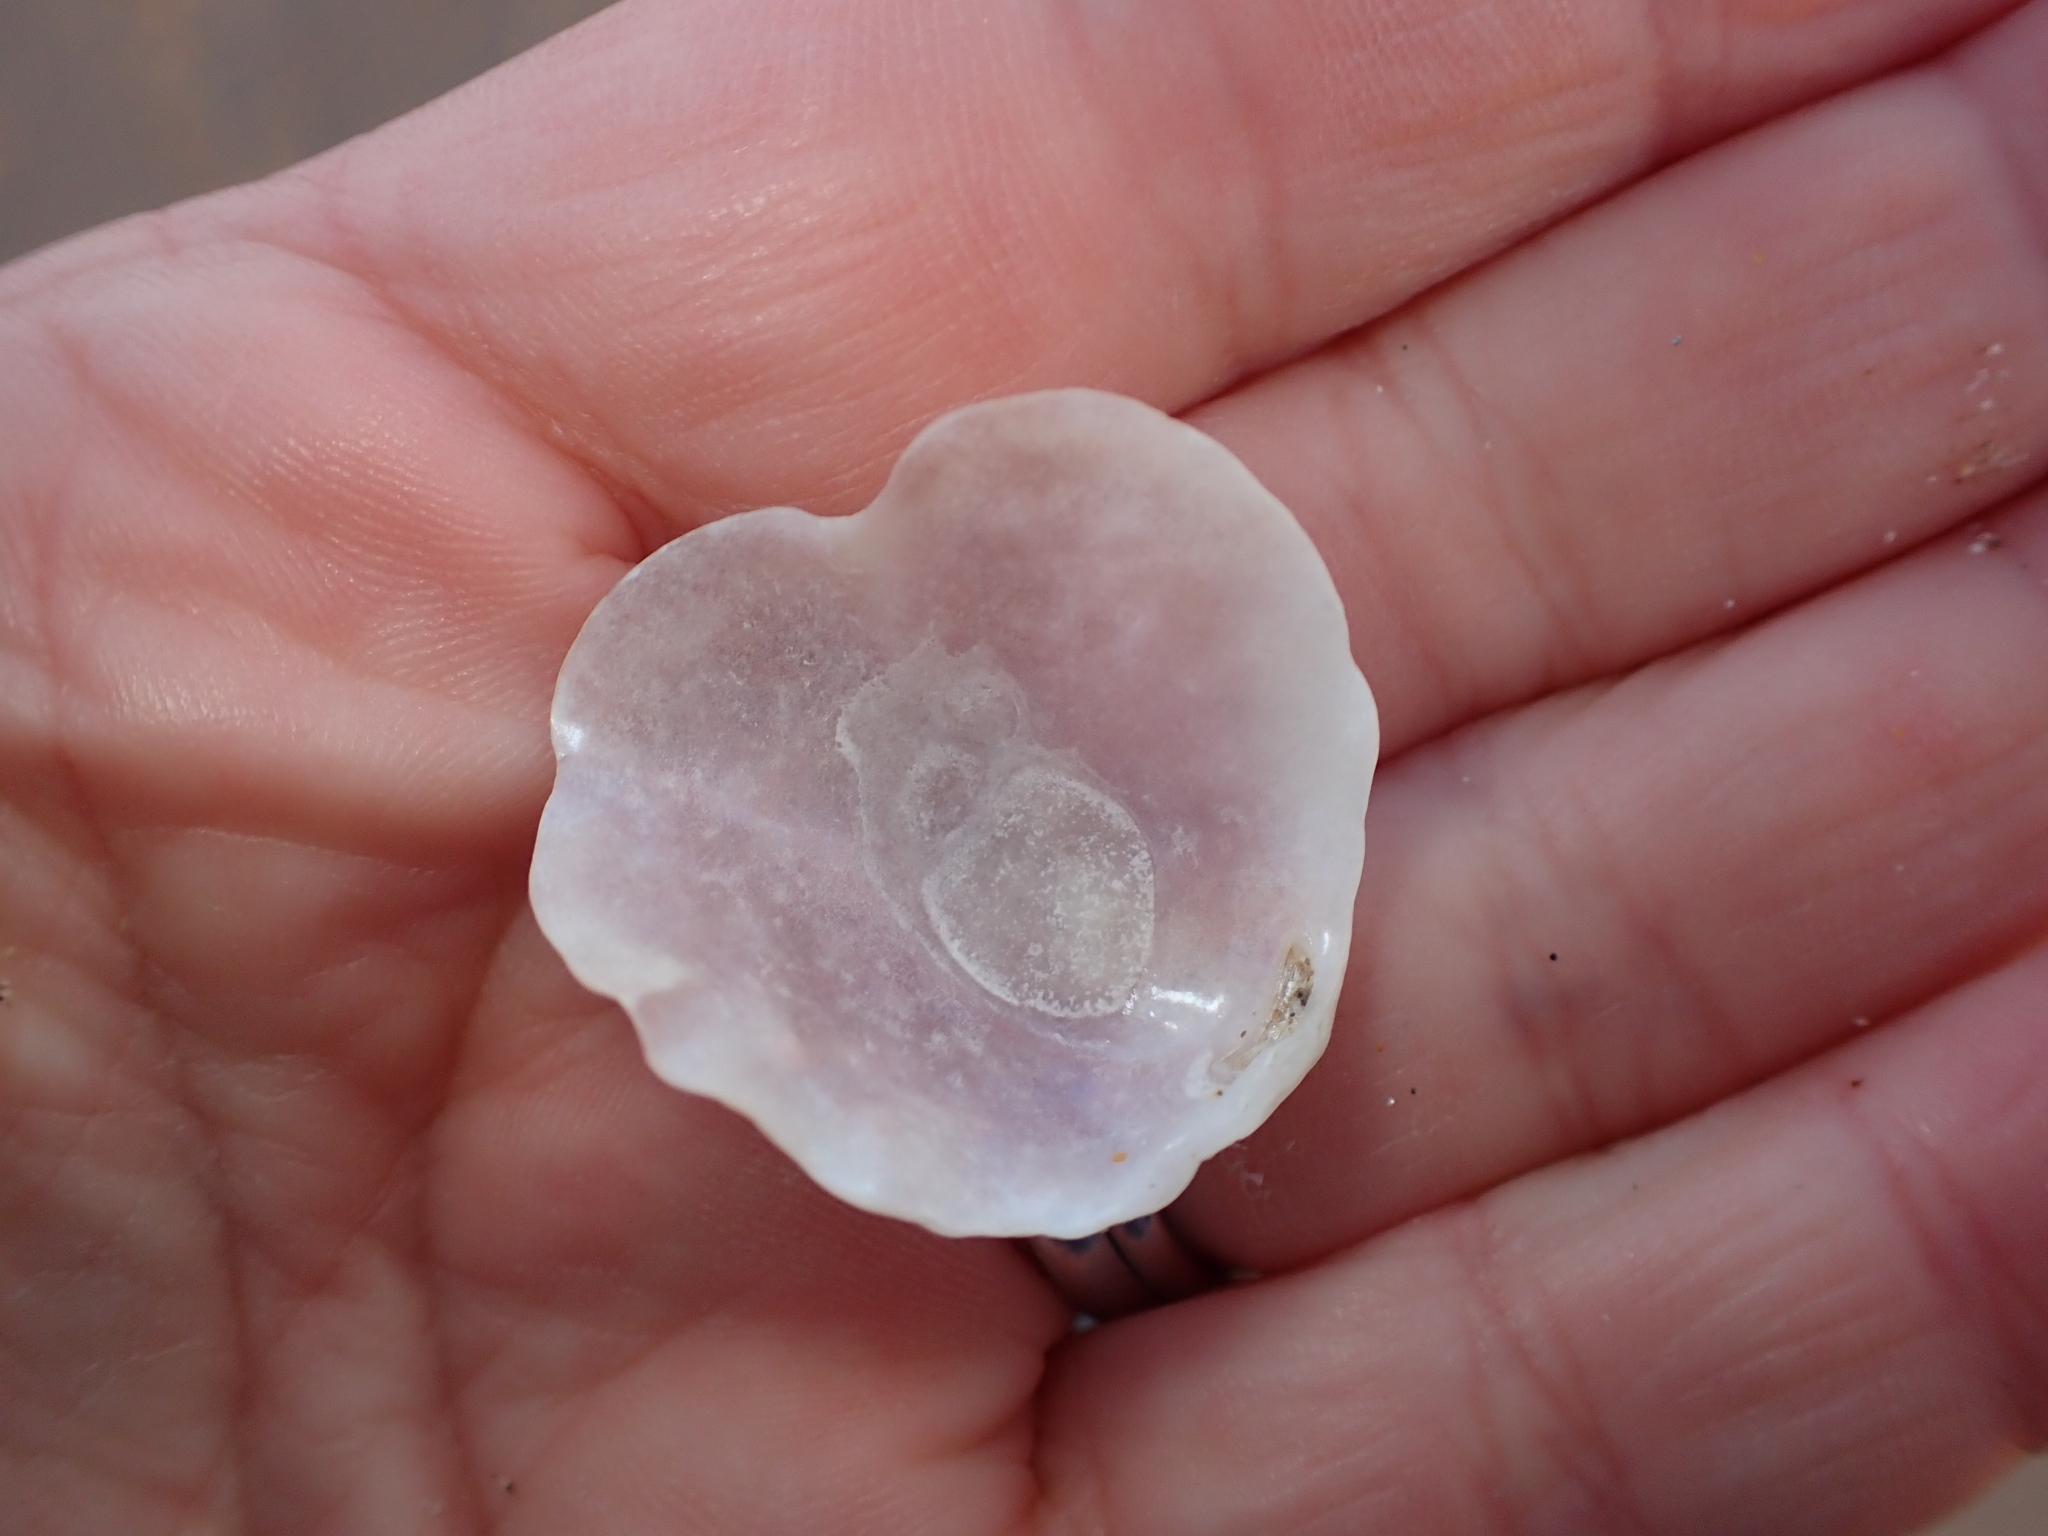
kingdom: Animalia
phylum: Mollusca
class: Bivalvia
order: Pectinida
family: Anomiidae
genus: Anomia
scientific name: Anomia ephippium
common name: Saddle oyster
